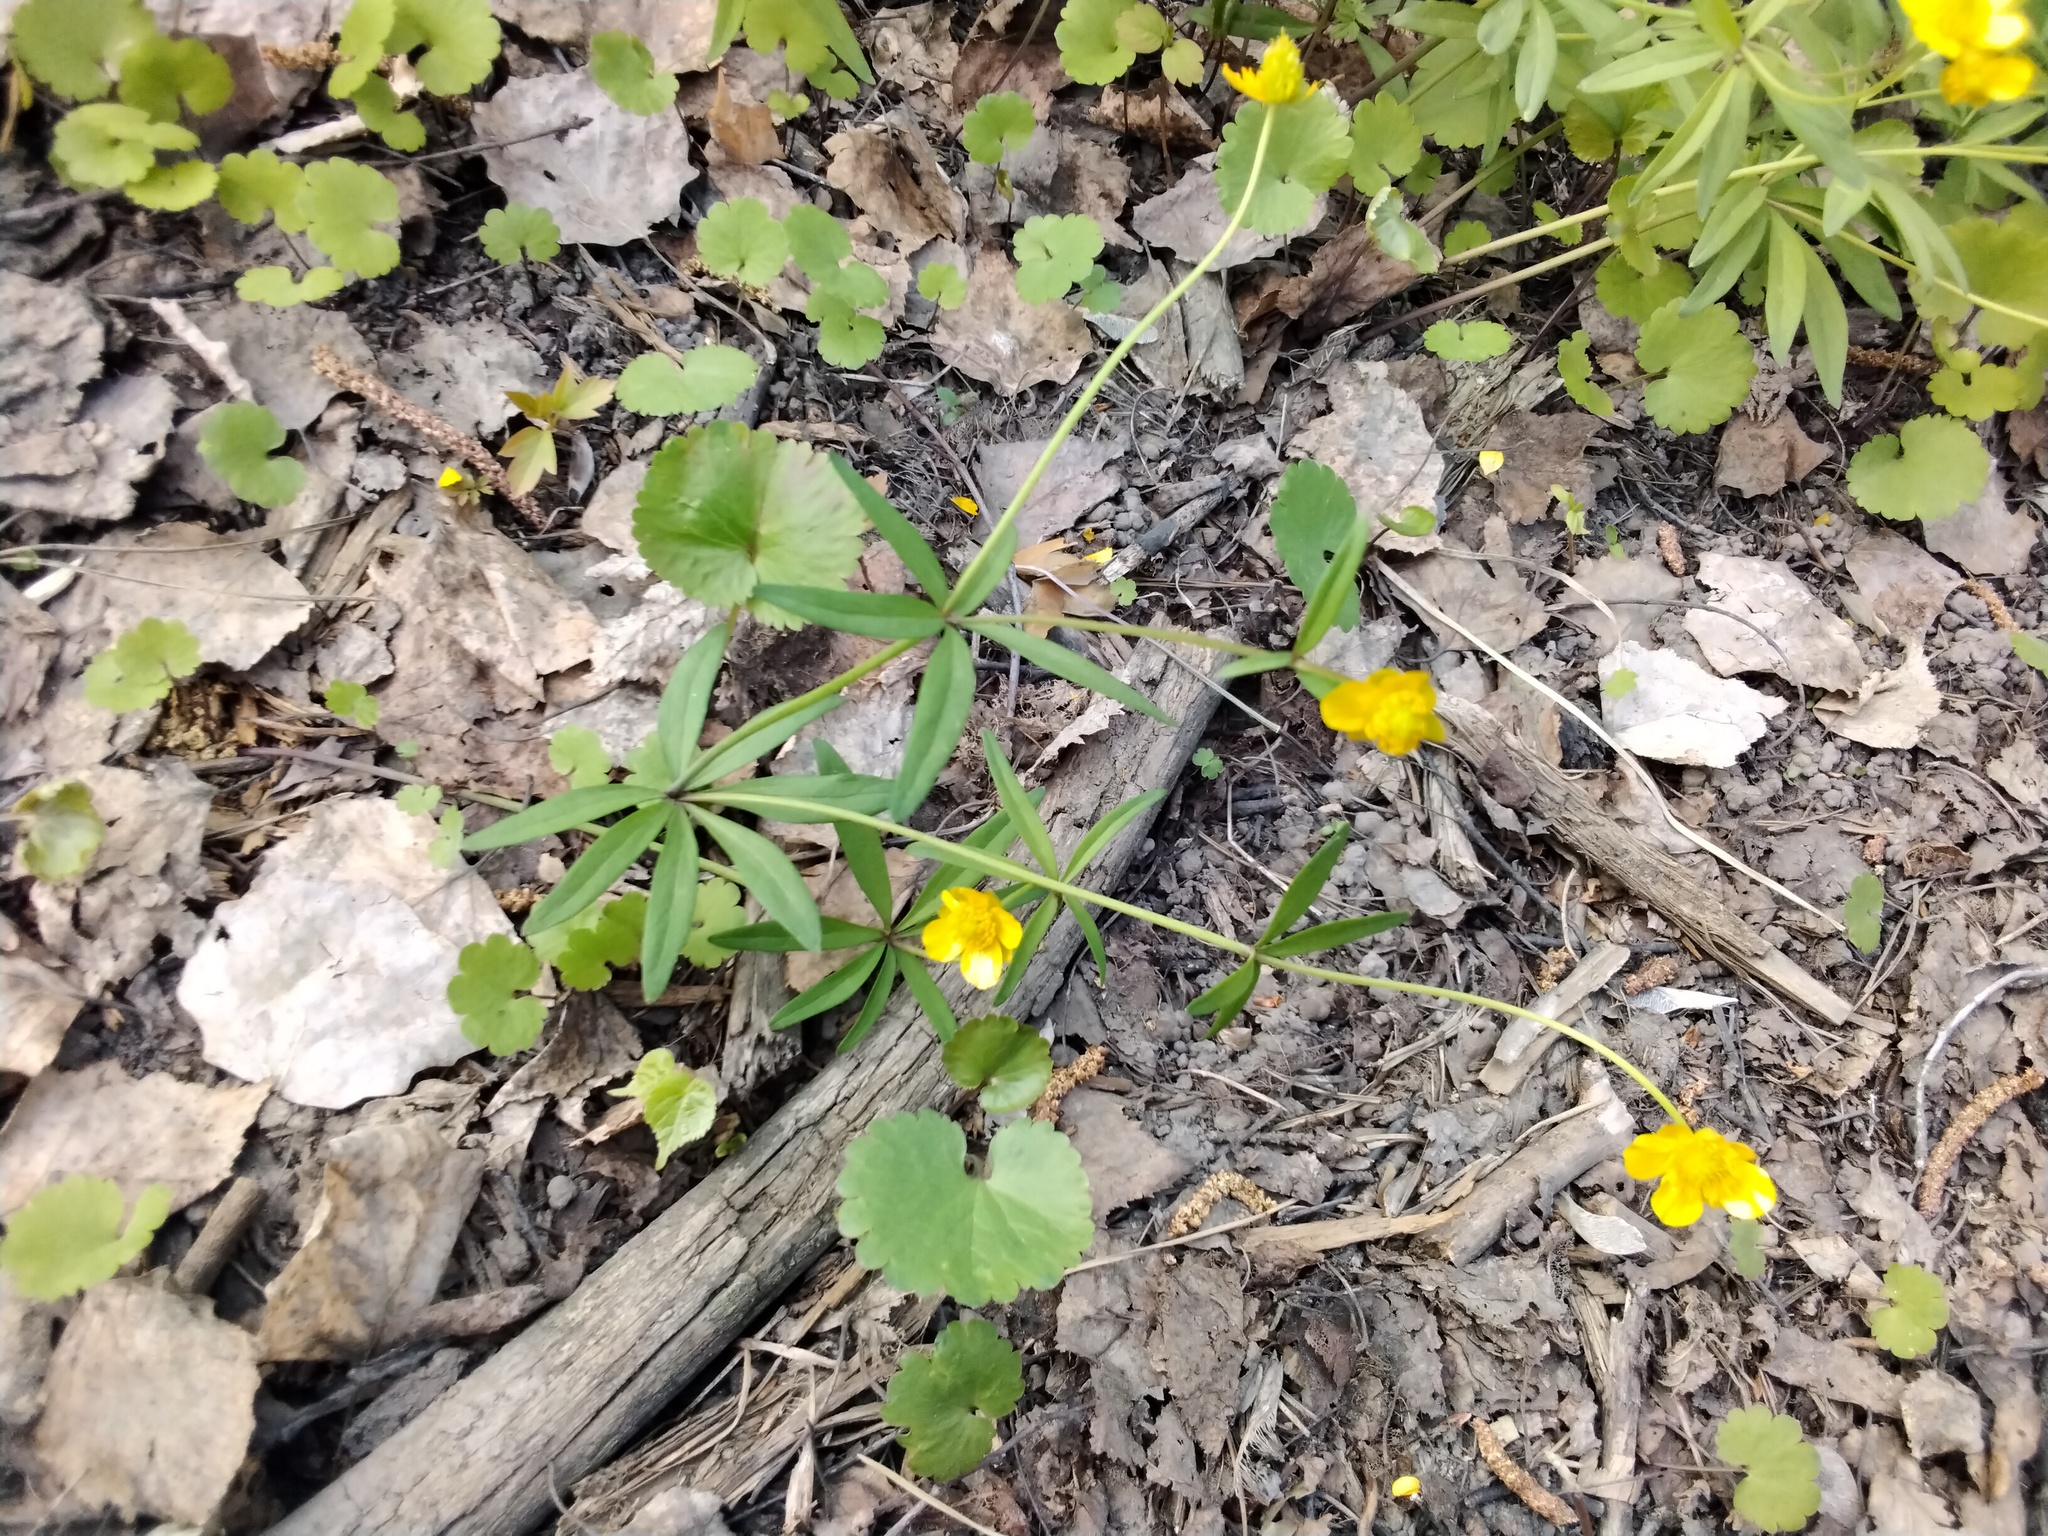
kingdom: Plantae
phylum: Tracheophyta
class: Magnoliopsida
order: Ranunculales
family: Ranunculaceae
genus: Ranunculus
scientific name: Ranunculus monophyllus
